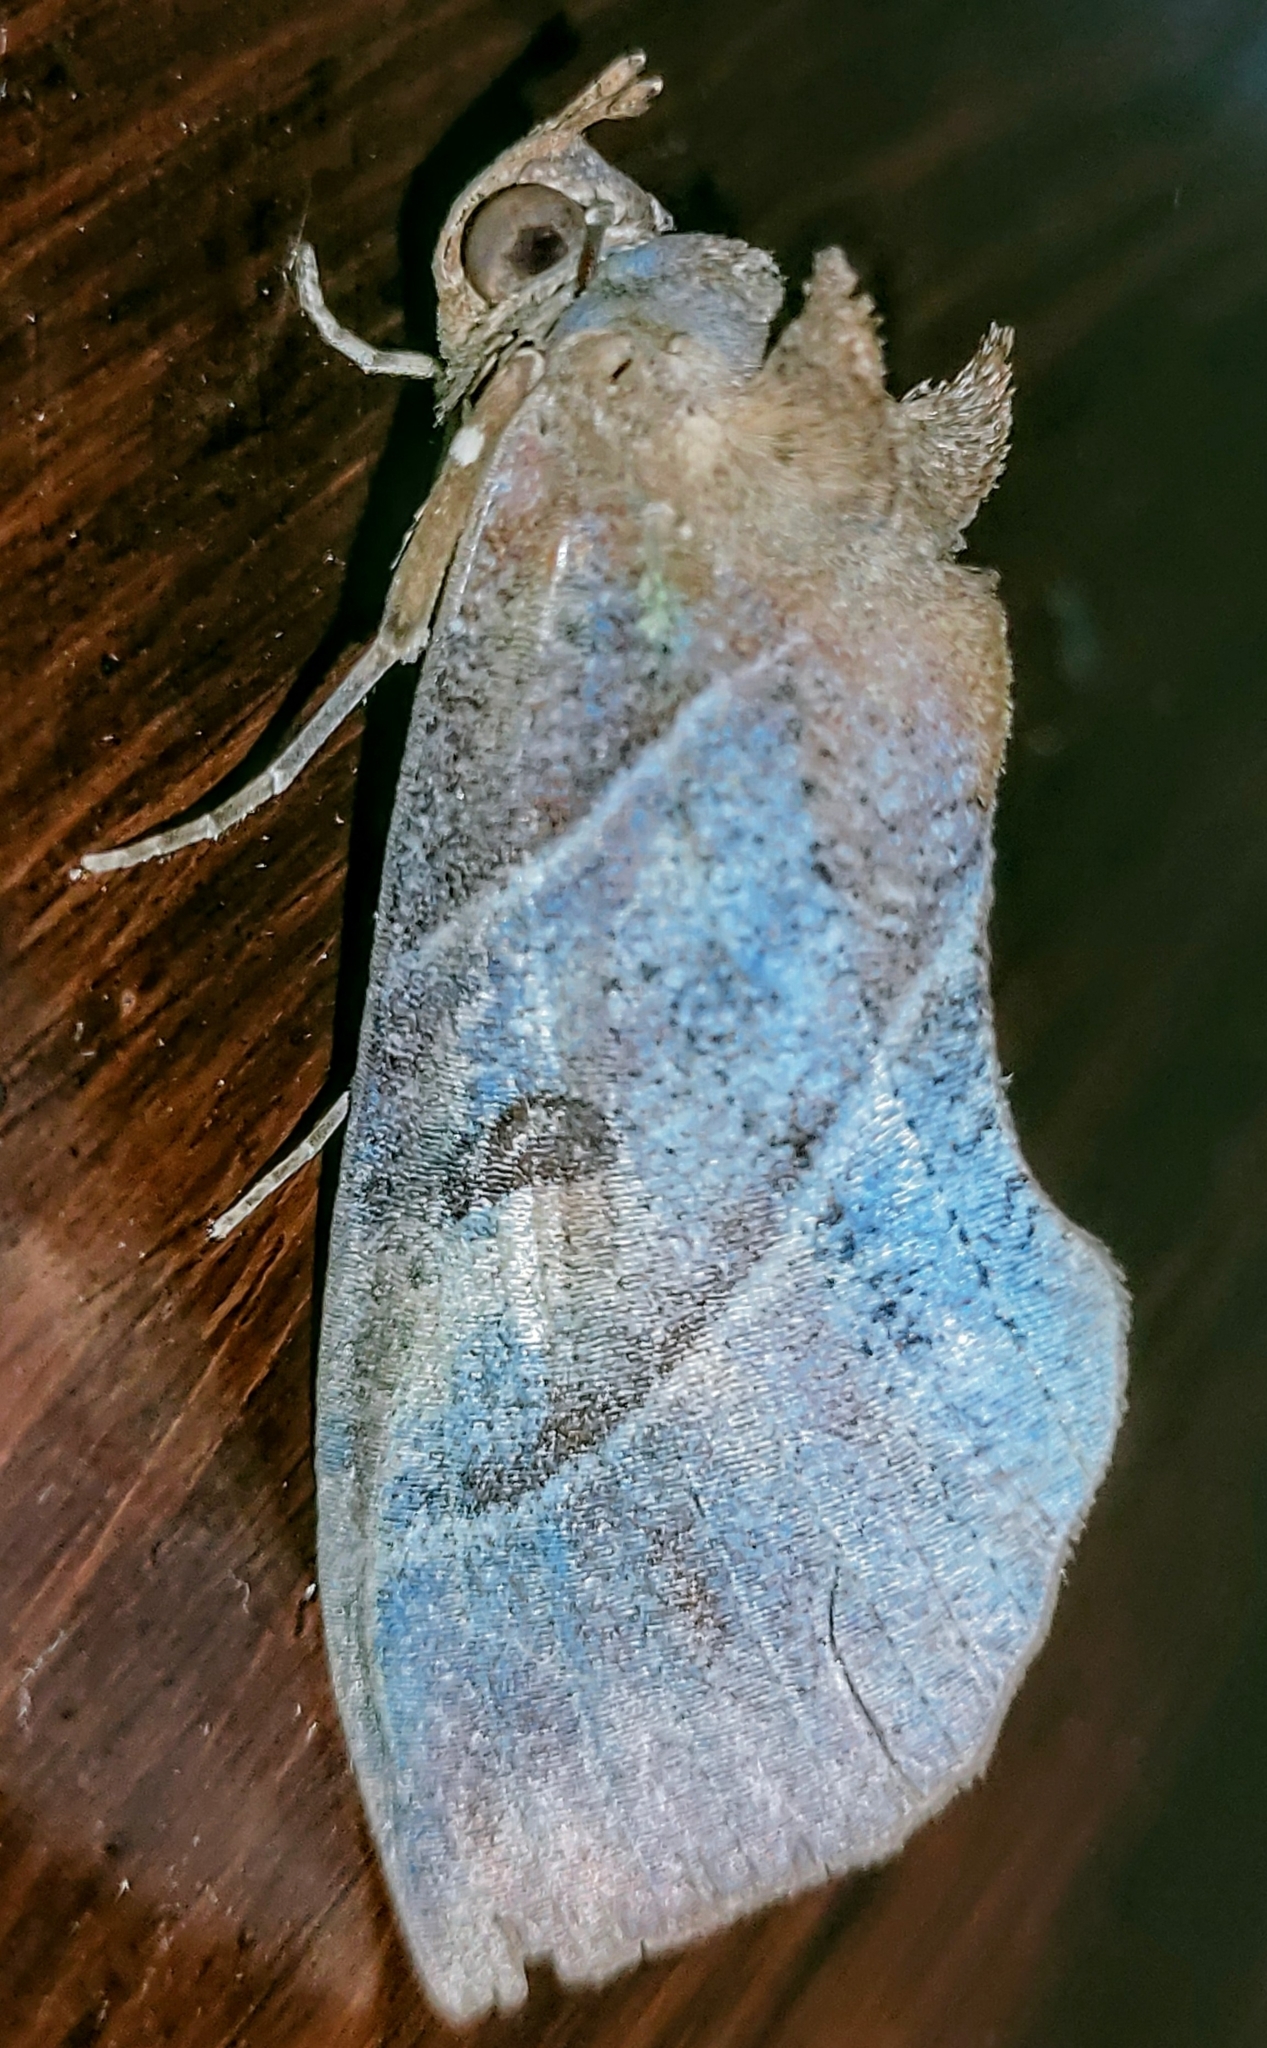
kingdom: Animalia
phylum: Arthropoda
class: Insecta
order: Lepidoptera
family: Erebidae
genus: Eudocima
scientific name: Eudocima phalonia
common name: Wasp
